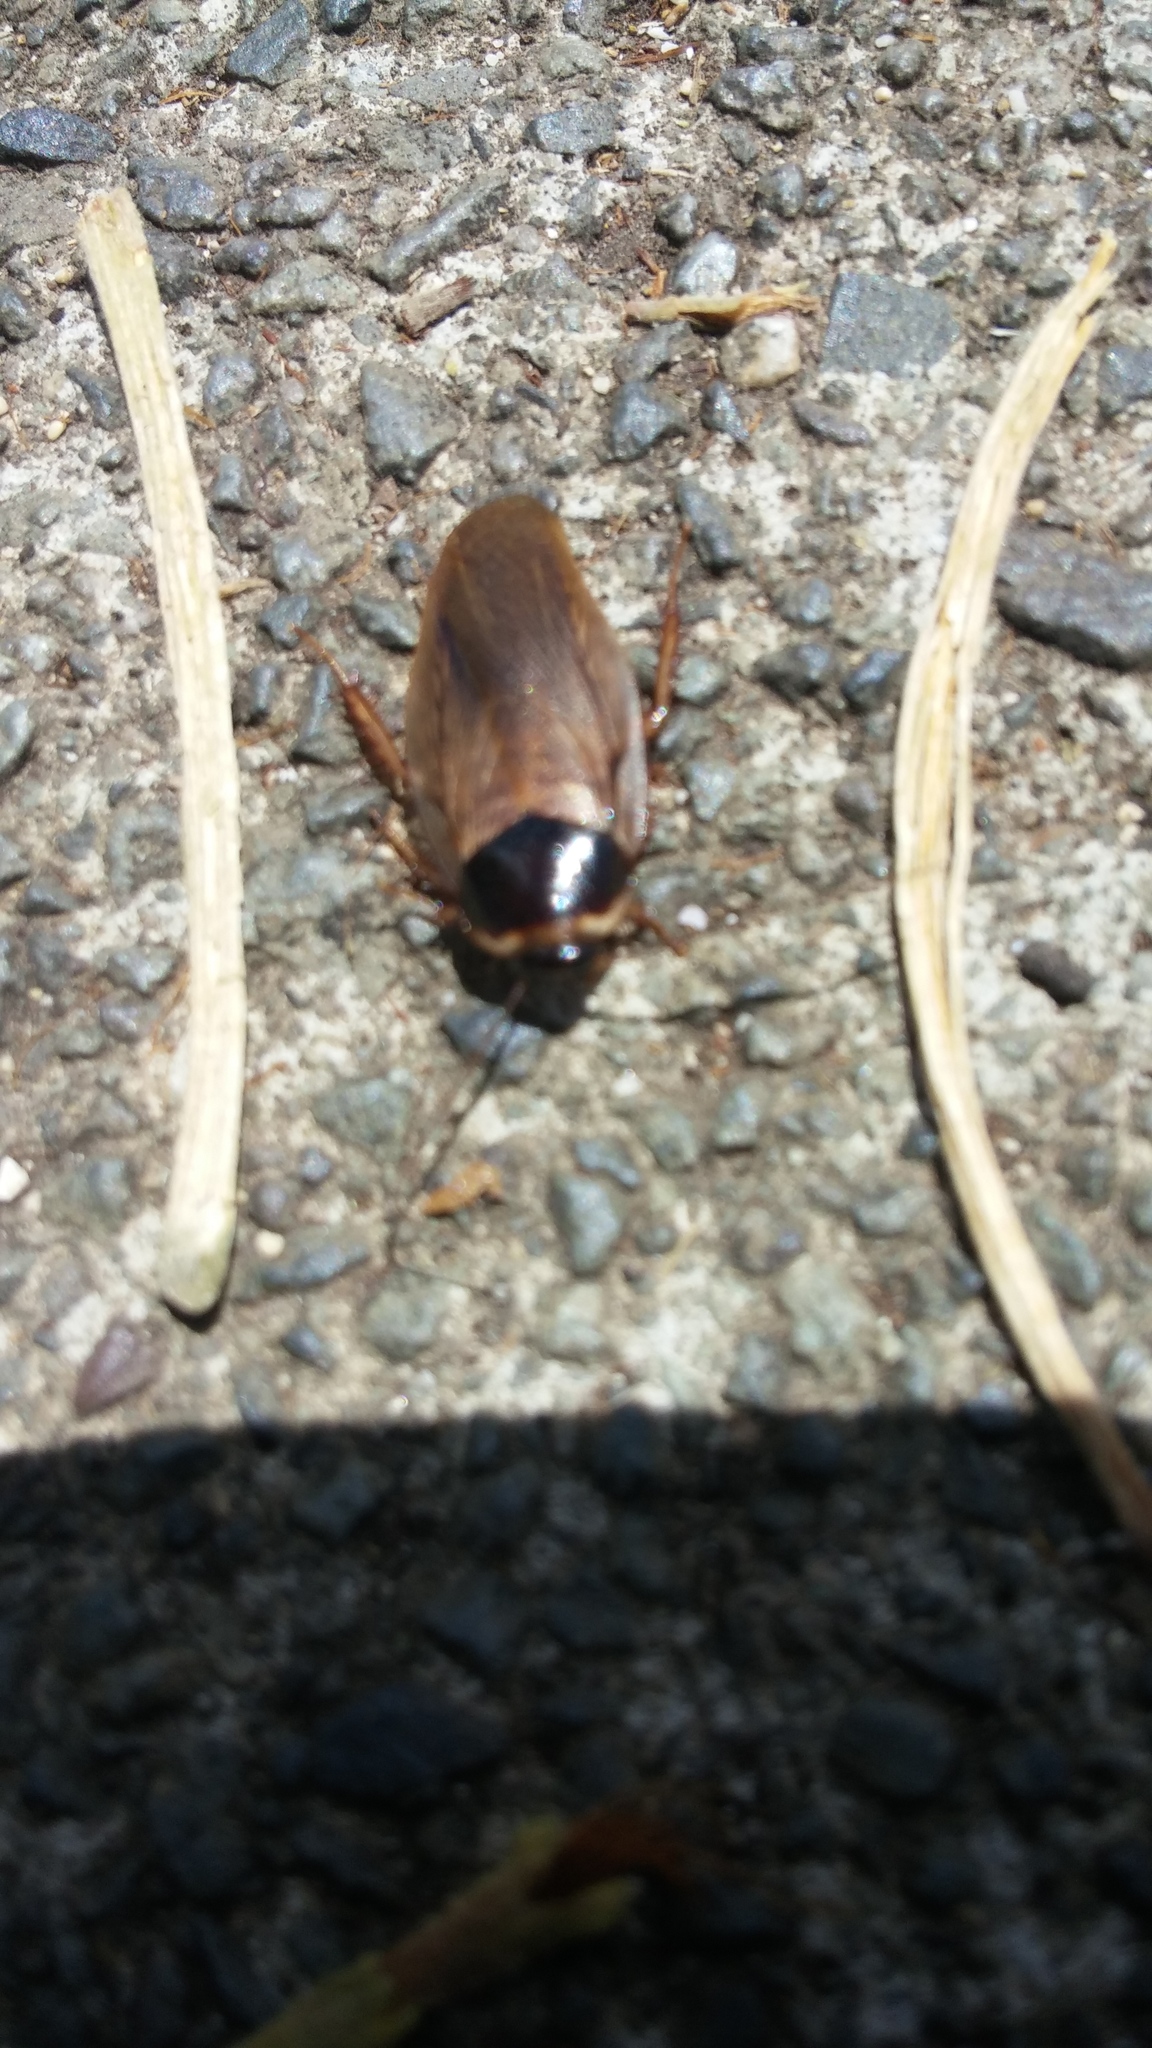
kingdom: Animalia
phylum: Arthropoda
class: Insecta
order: Blattodea
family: Blaberidae
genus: Pycnoscelus
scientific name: Pycnoscelus indicus
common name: Burrowing cockroach
